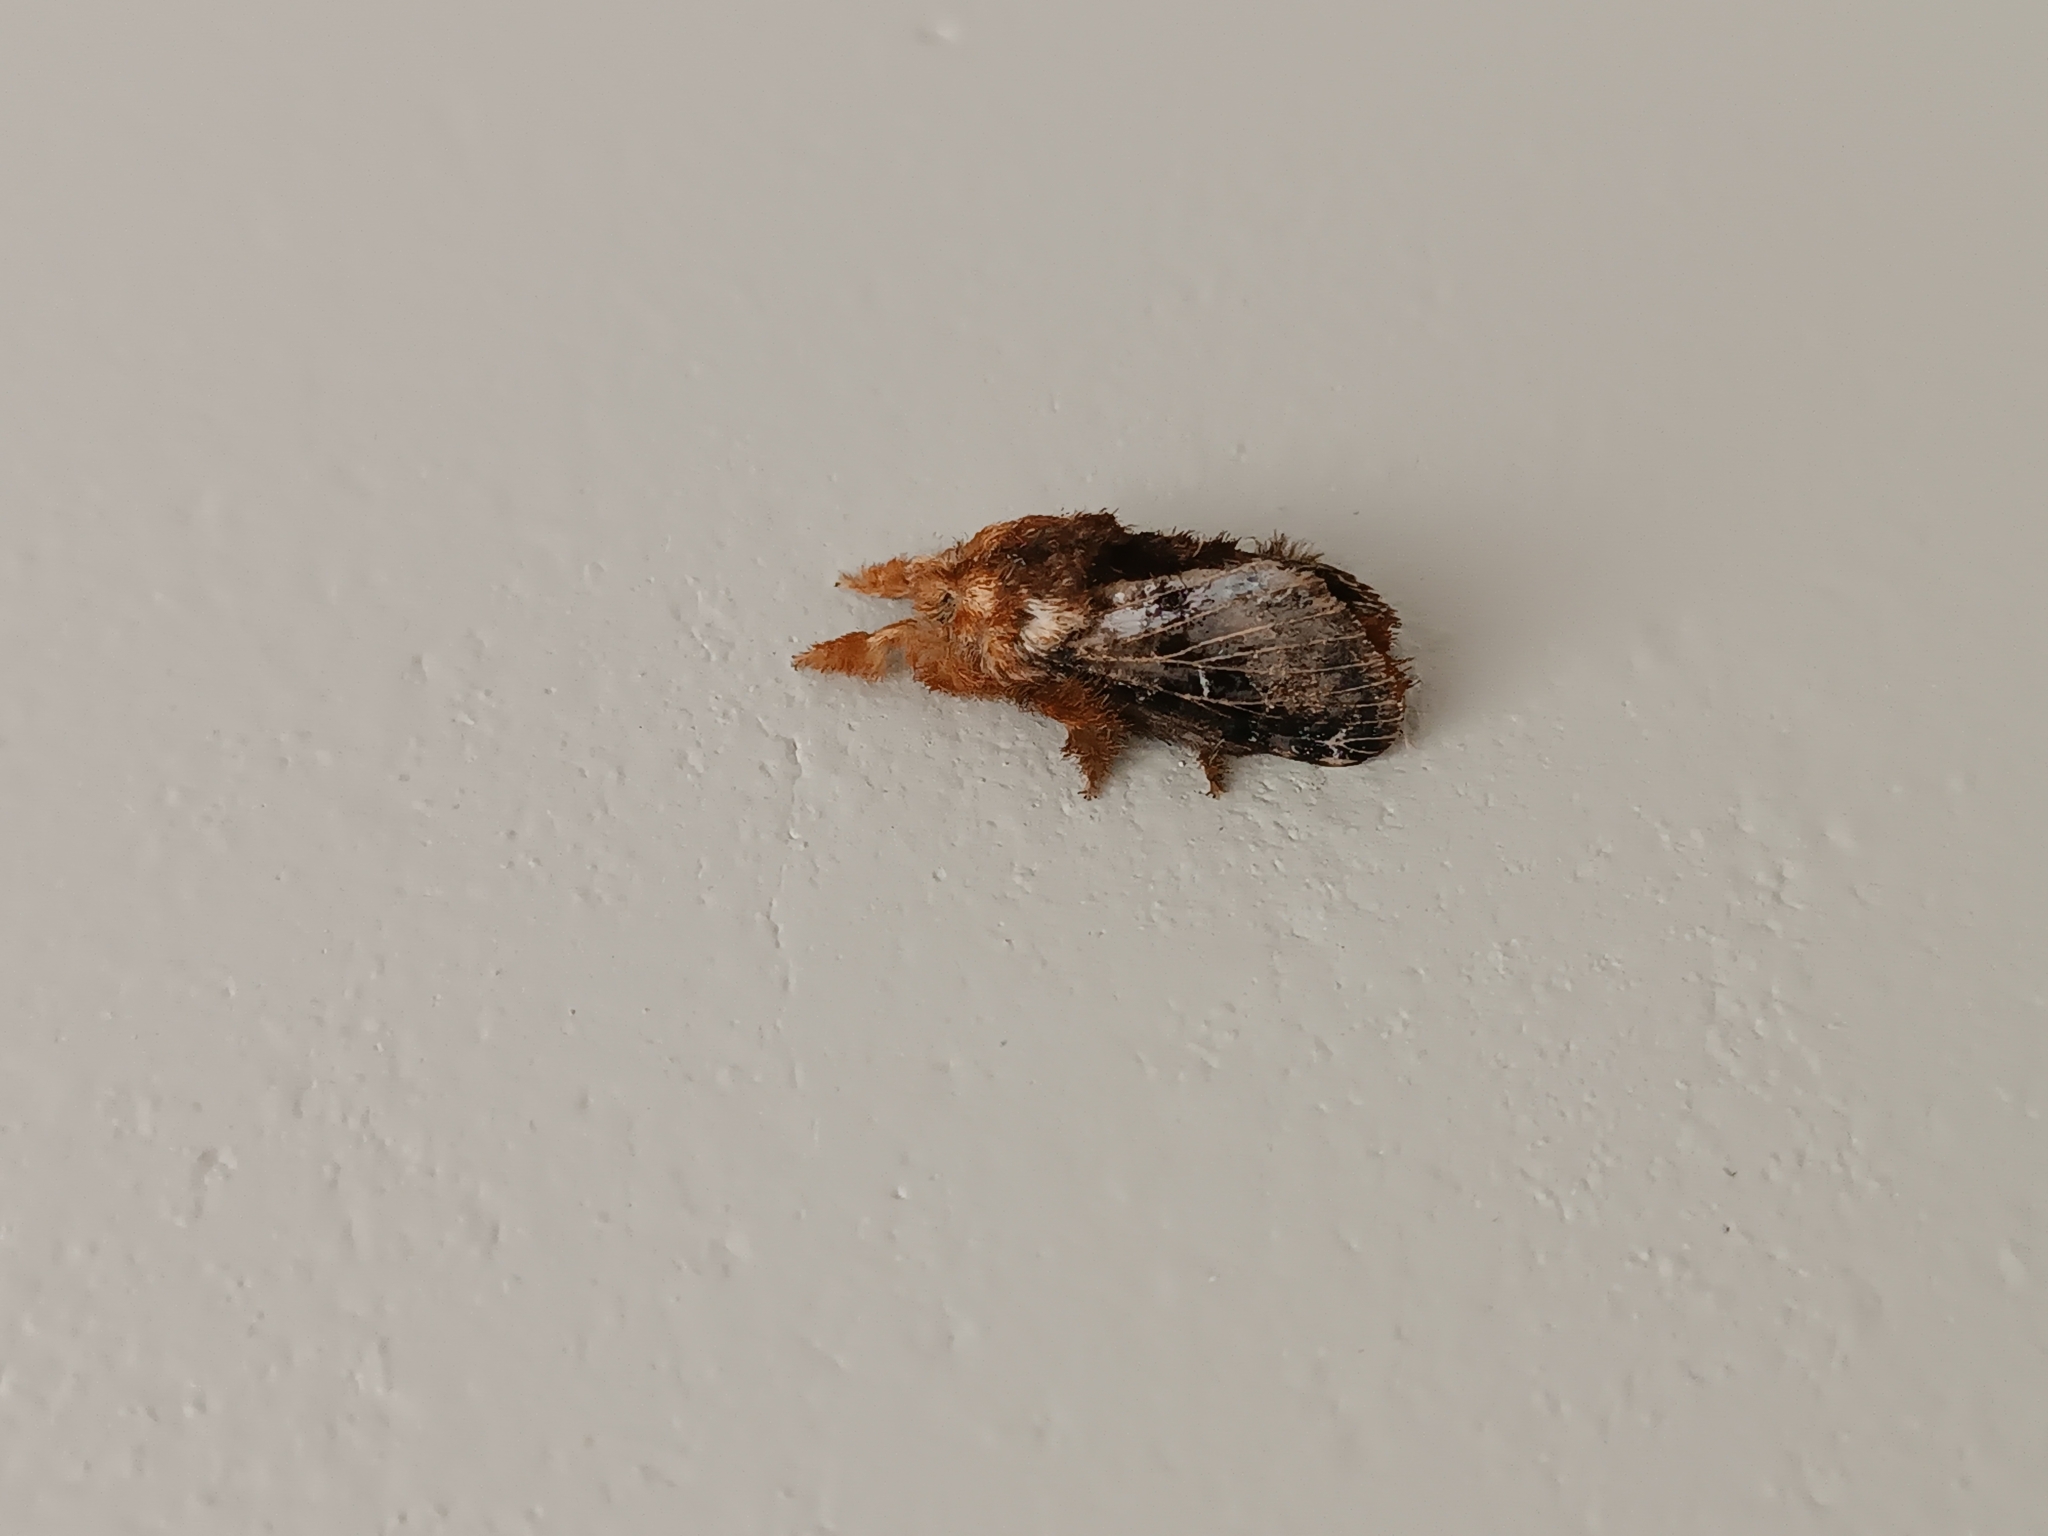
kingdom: Animalia
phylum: Arthropoda
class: Insecta
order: Lepidoptera
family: Lasiocampidae
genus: Tolype
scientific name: Tolype medialis
